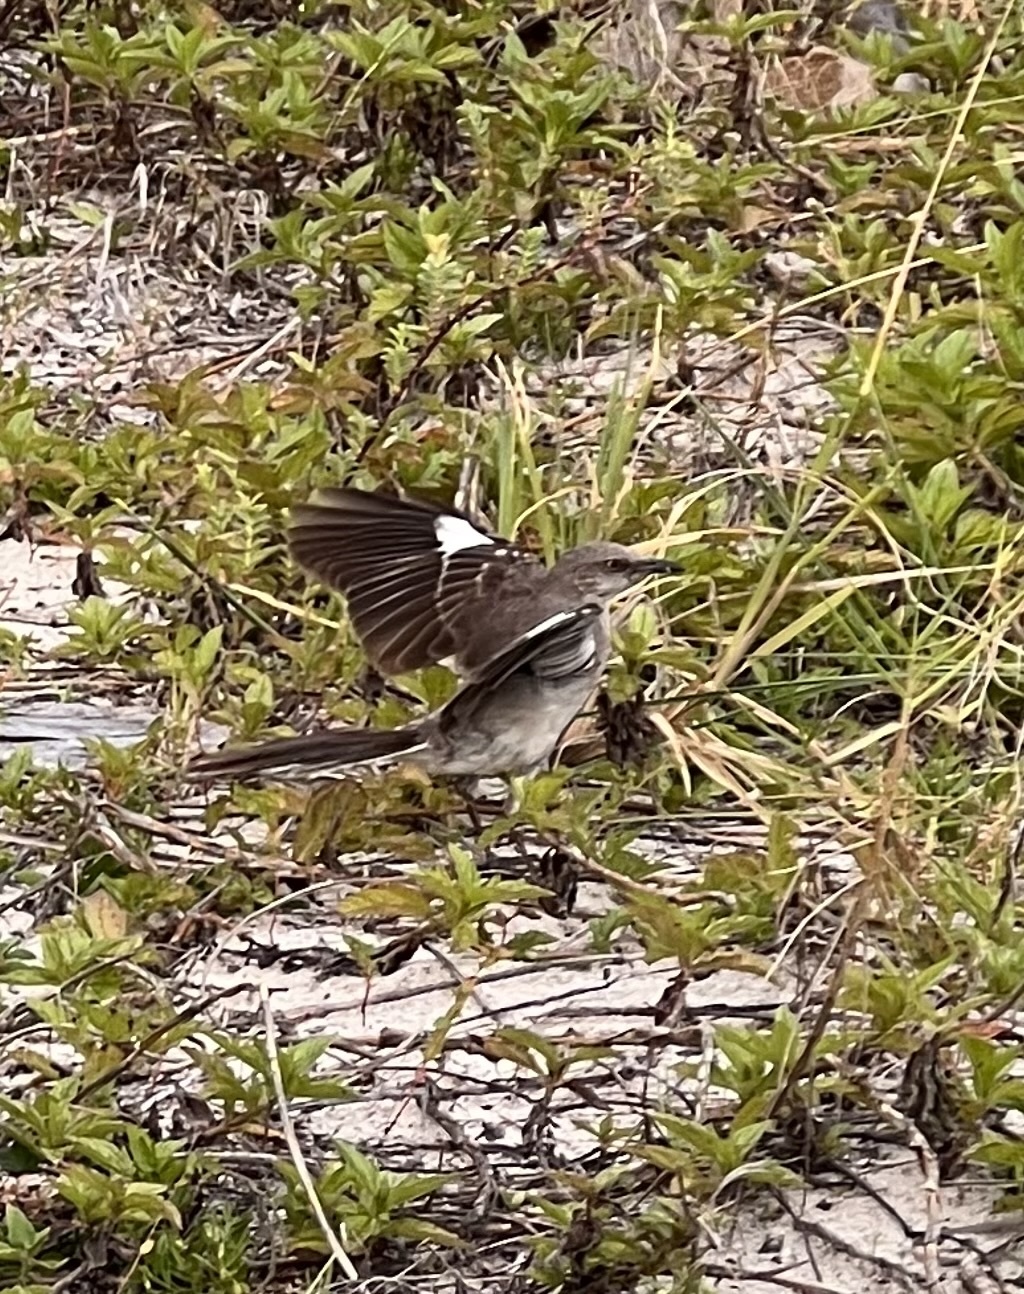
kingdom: Animalia
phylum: Chordata
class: Aves
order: Passeriformes
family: Mimidae
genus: Mimus
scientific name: Mimus polyglottos
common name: Northern mockingbird
